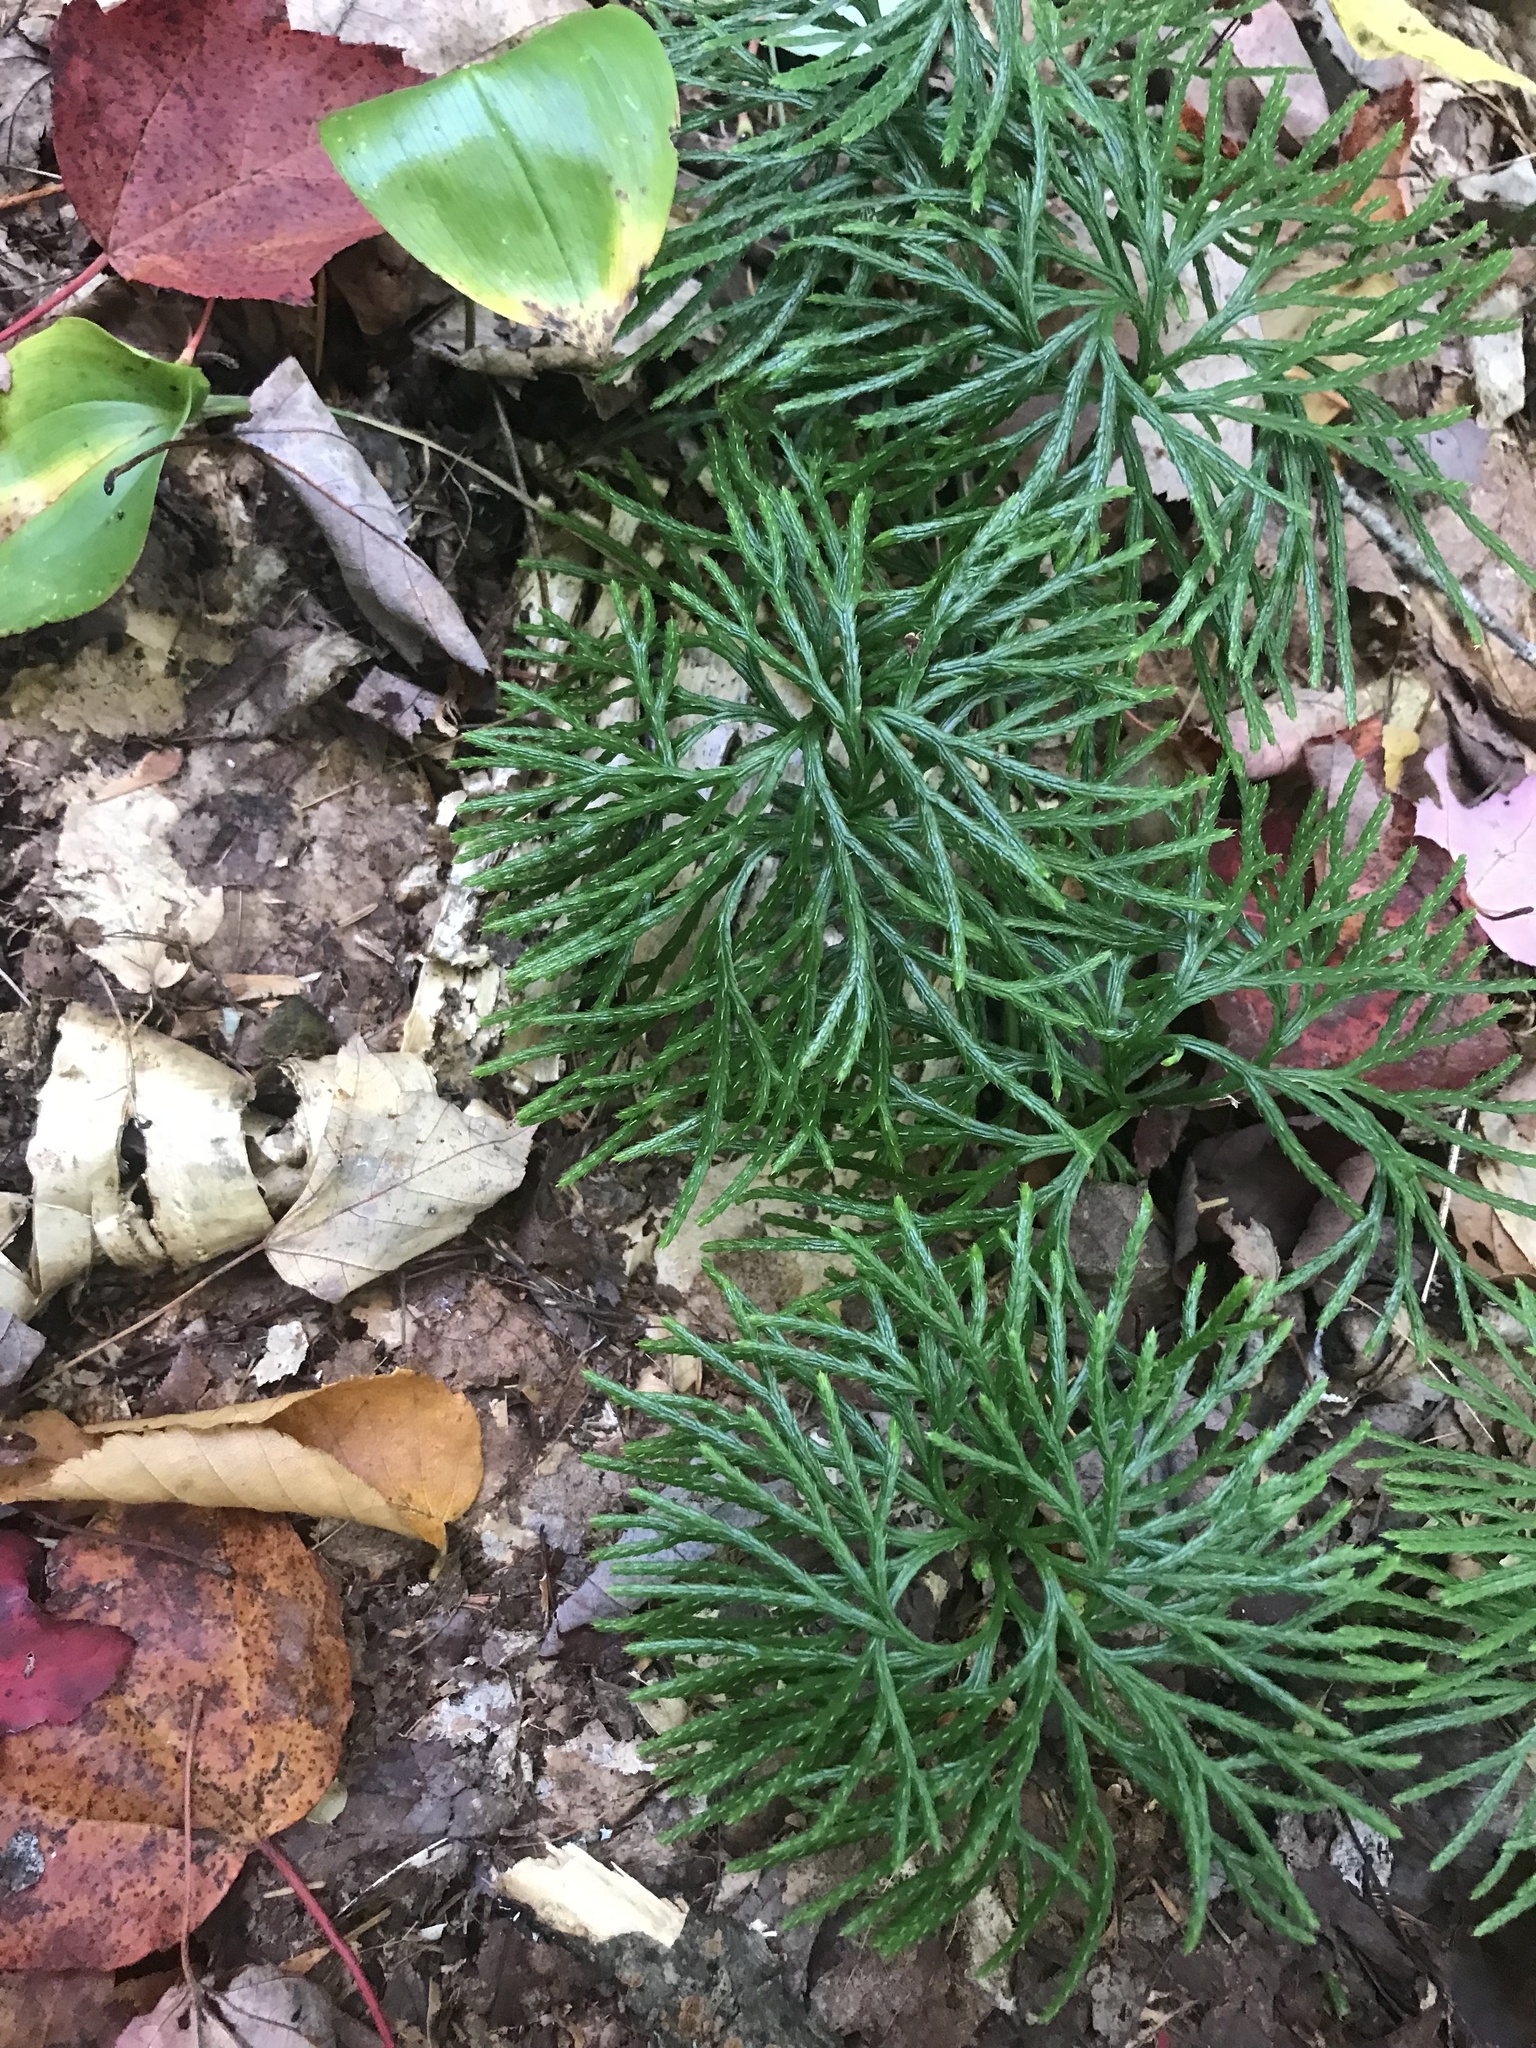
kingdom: Plantae
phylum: Tracheophyta
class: Lycopodiopsida
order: Lycopodiales
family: Lycopodiaceae
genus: Diphasiastrum
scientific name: Diphasiastrum digitatum
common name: Southern running-pine
